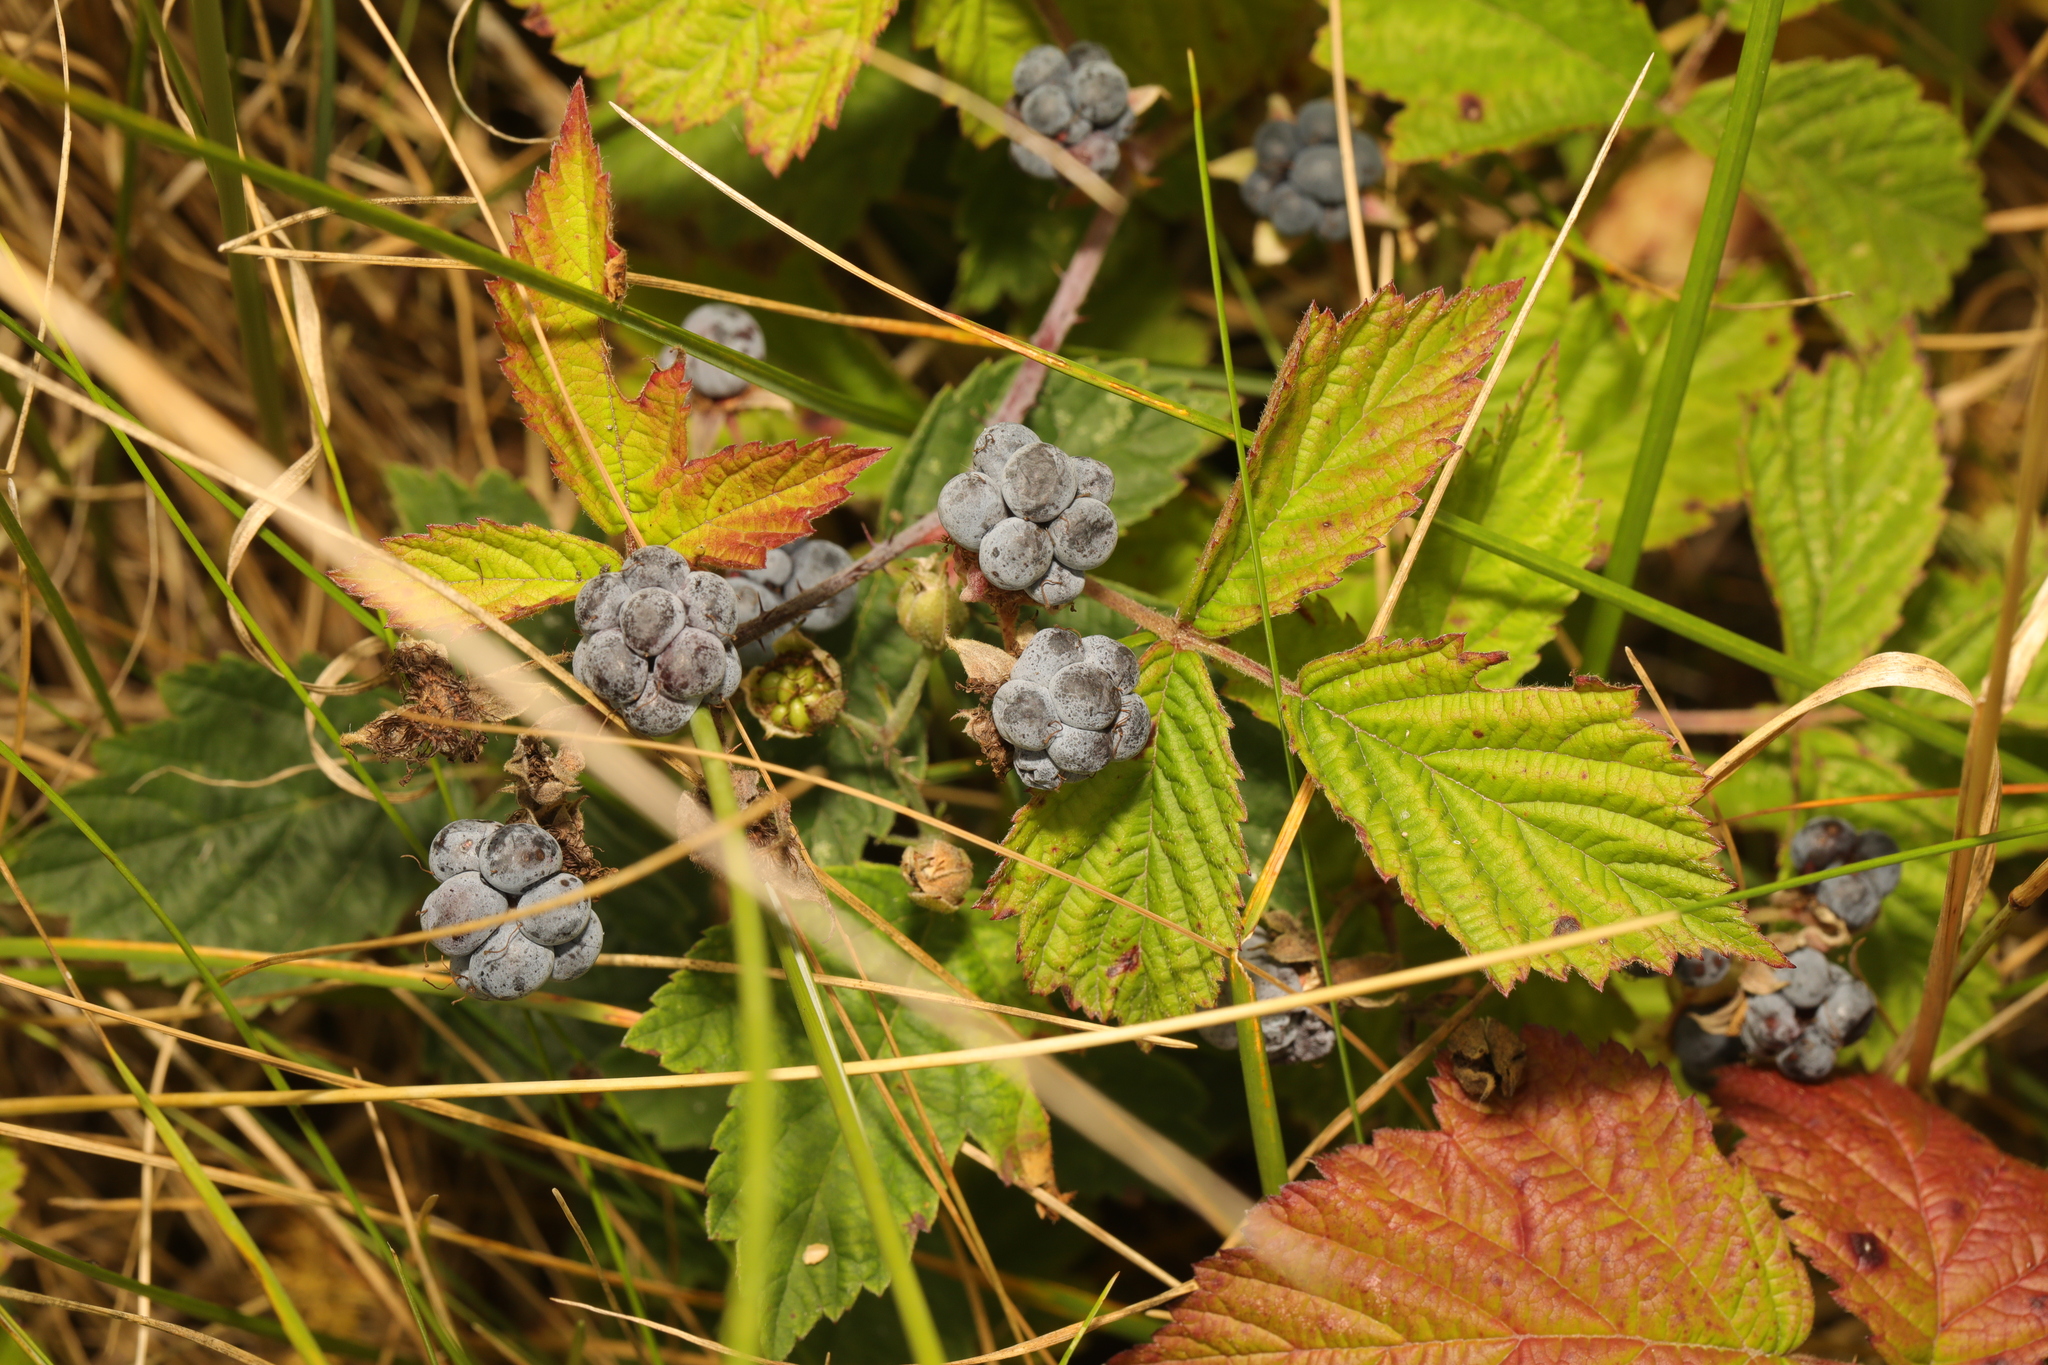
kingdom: Plantae
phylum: Tracheophyta
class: Magnoliopsida
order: Rosales
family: Rosaceae
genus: Rubus
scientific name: Rubus caesius
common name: Dewberry
